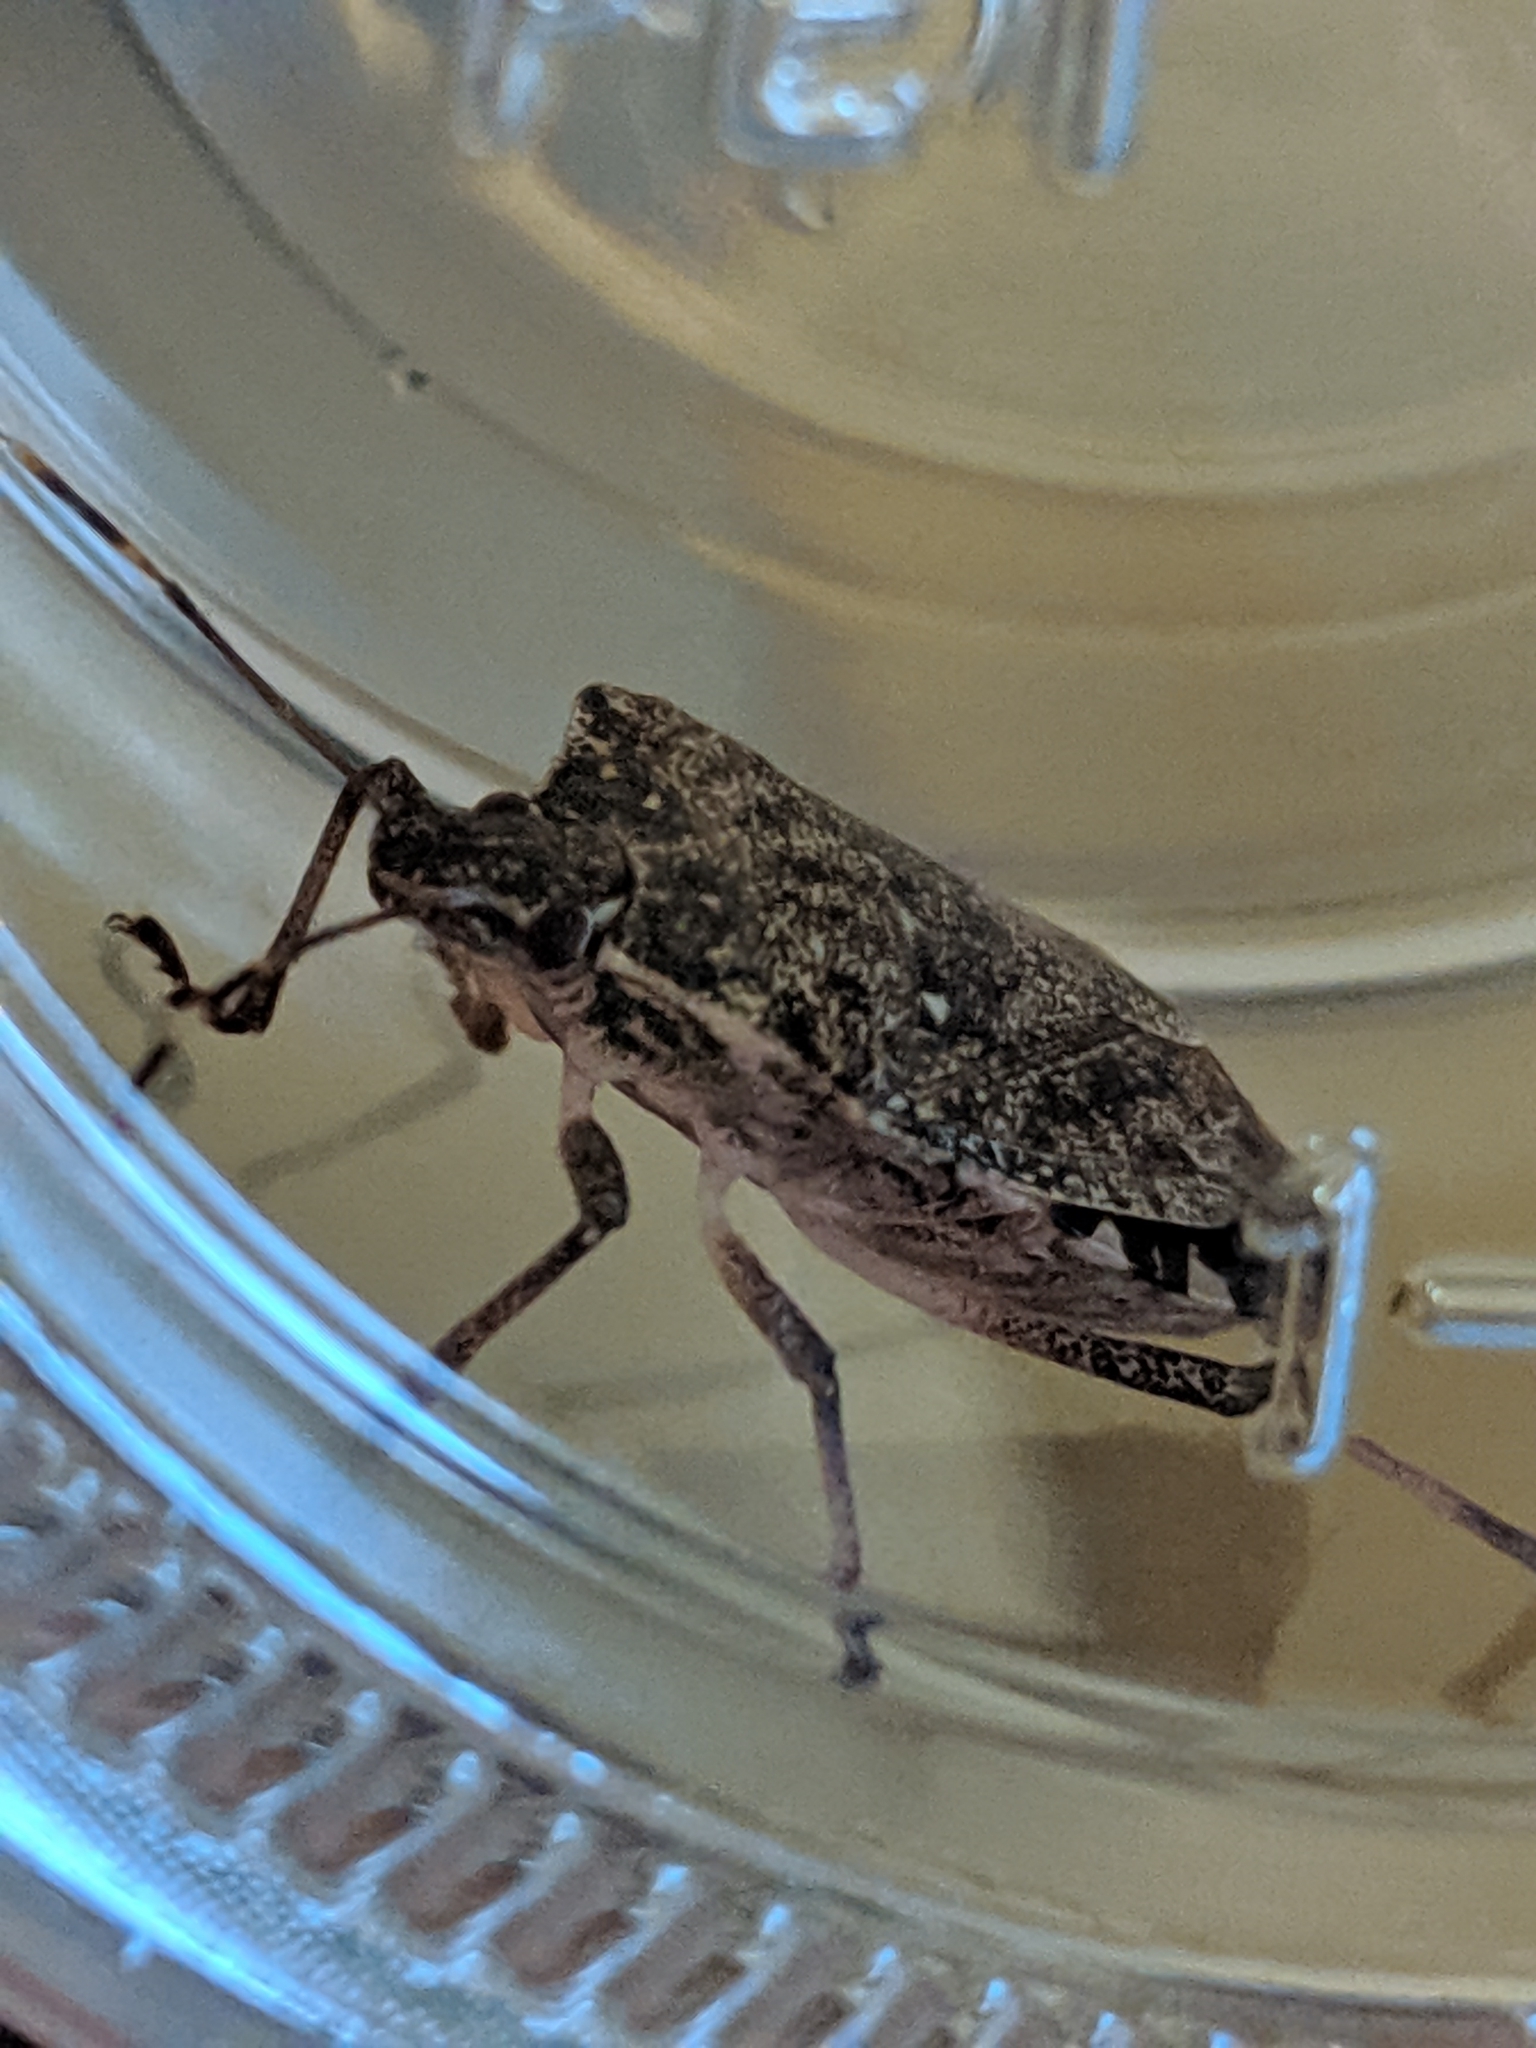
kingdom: Animalia
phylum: Arthropoda
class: Insecta
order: Hemiptera
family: Pentatomidae
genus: Halyomorpha
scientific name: Halyomorpha halys
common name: Brown marmorated stink bug
